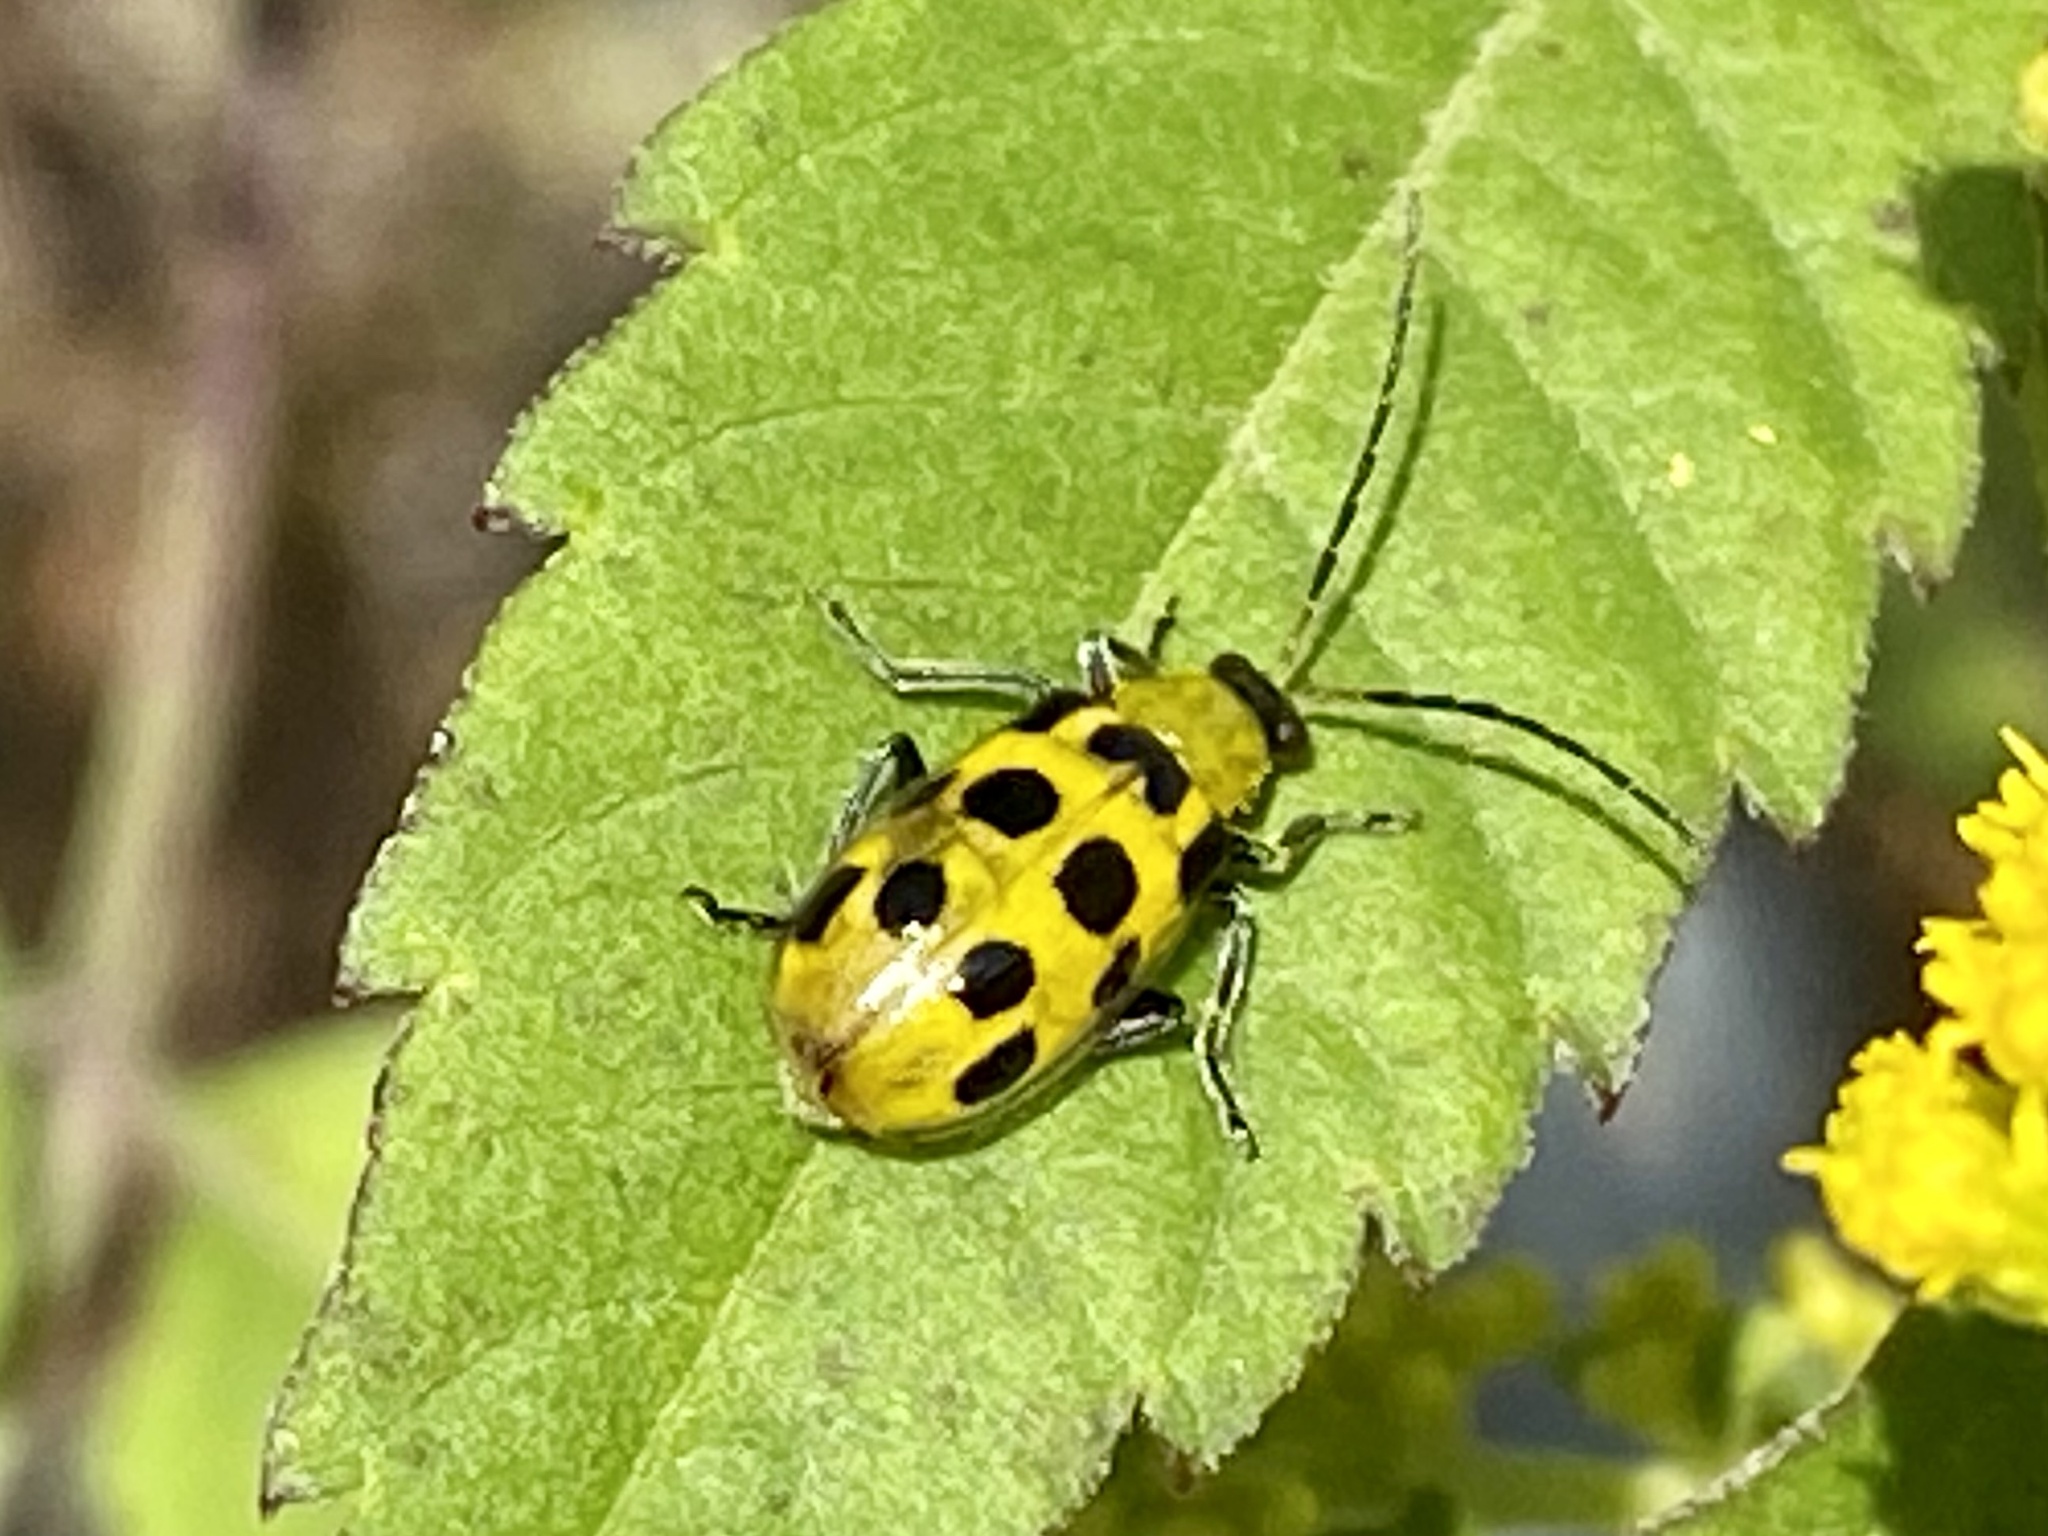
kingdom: Animalia
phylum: Arthropoda
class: Insecta
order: Coleoptera
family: Chrysomelidae
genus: Diabrotica
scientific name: Diabrotica undecimpunctata
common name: Spotted cucumber beetle
